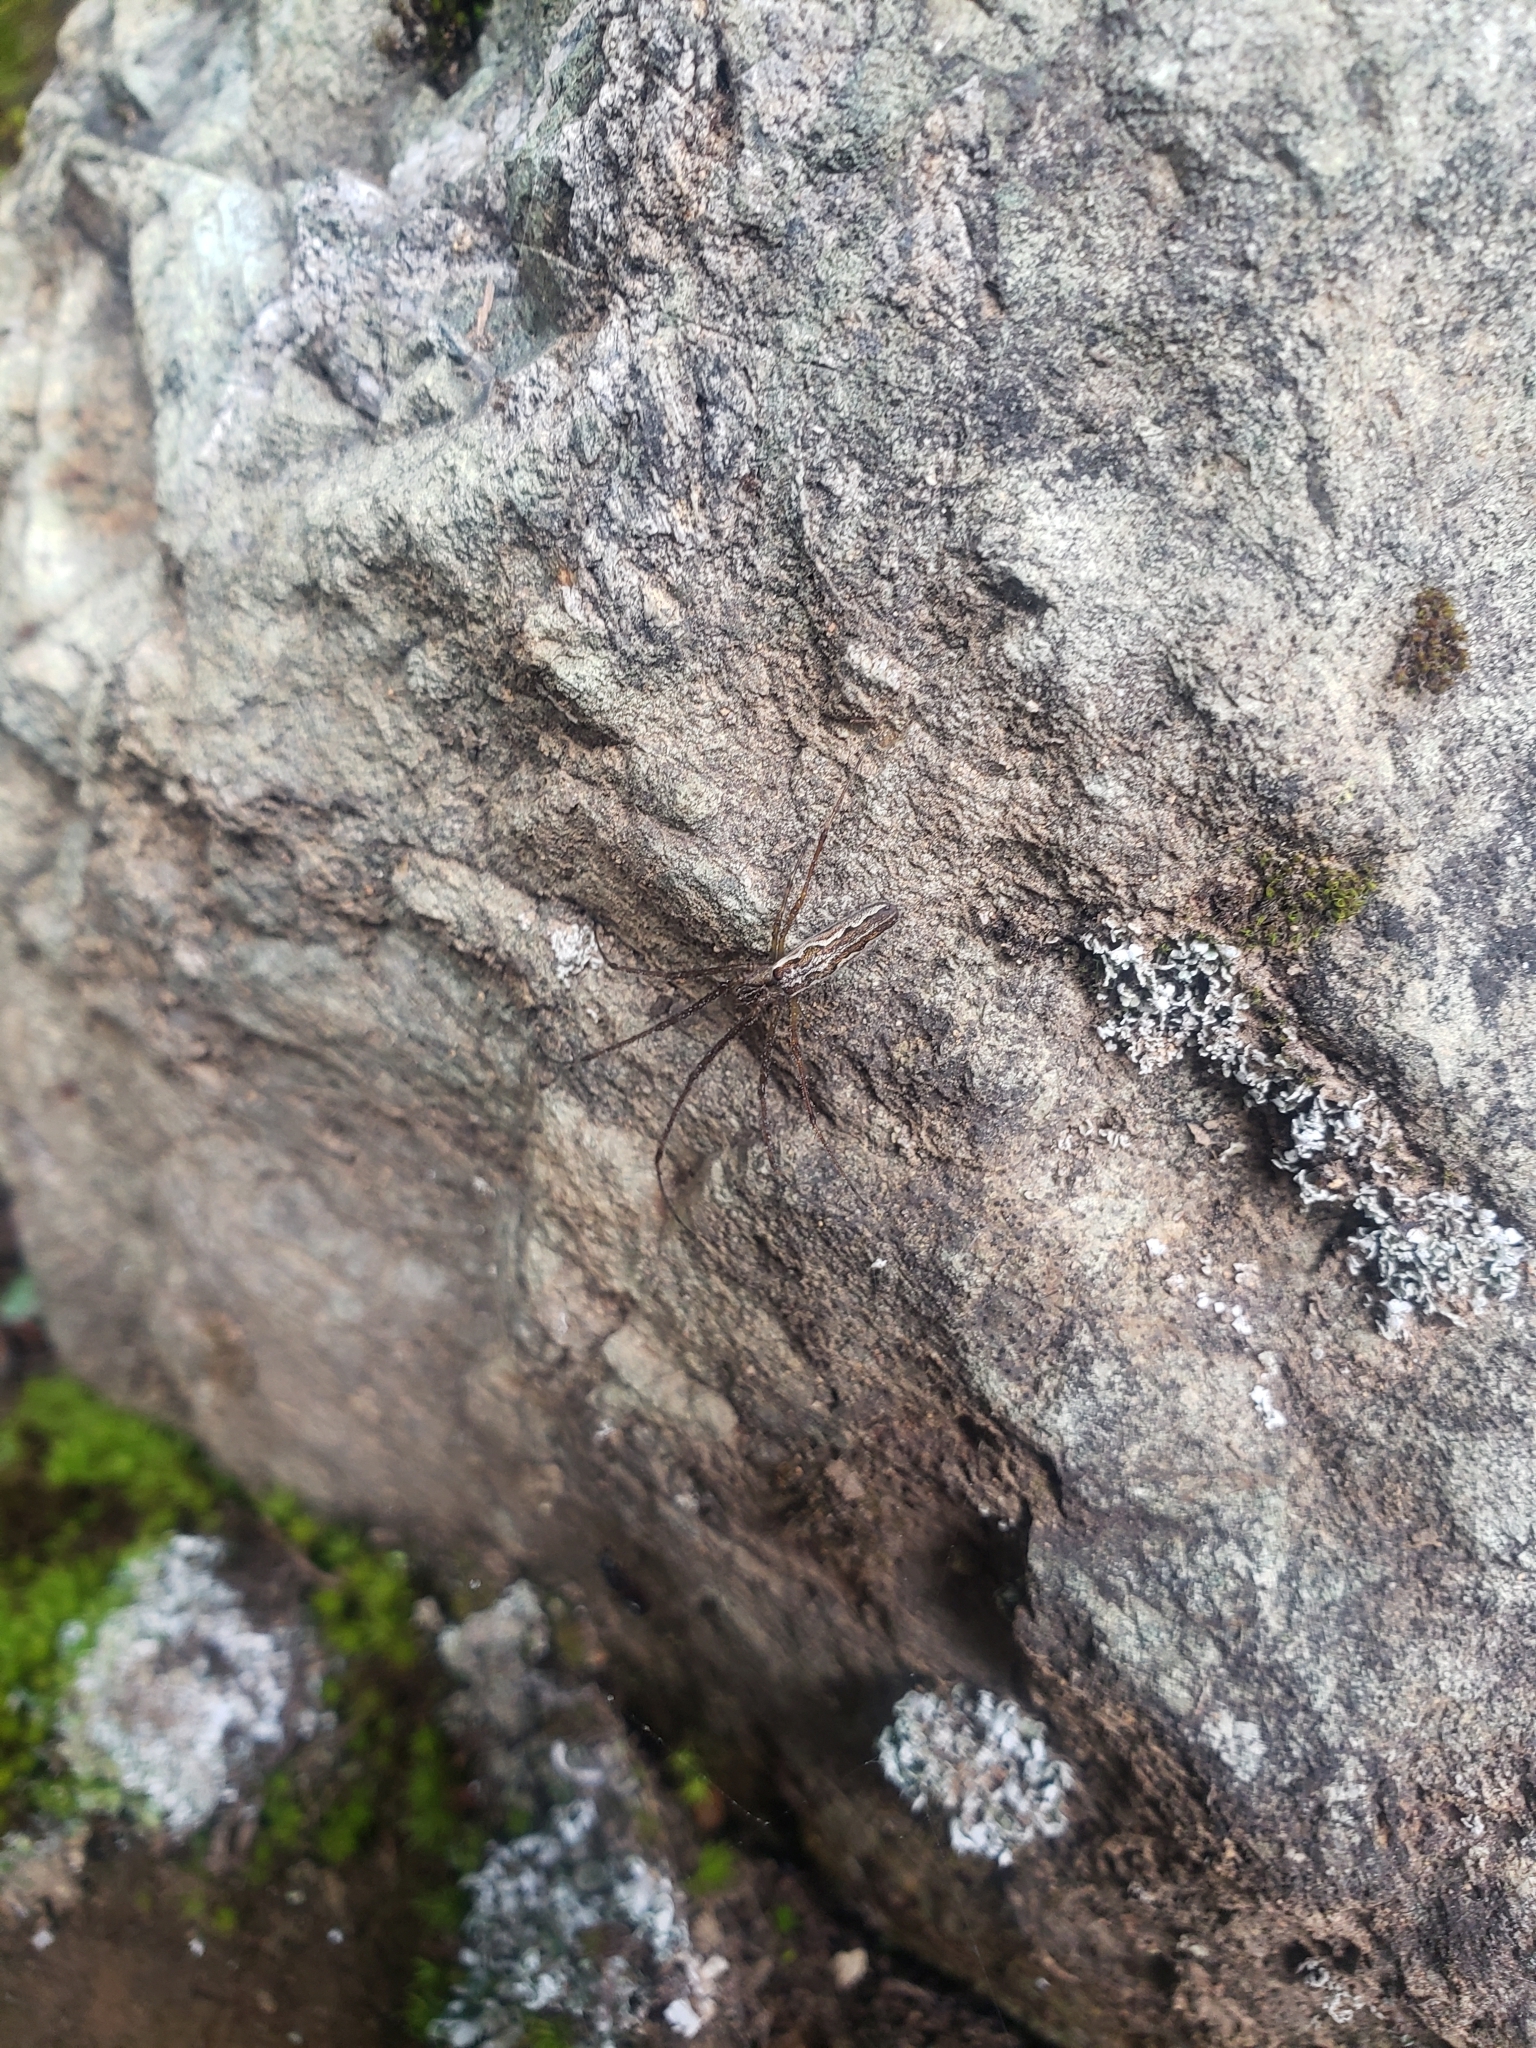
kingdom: Animalia
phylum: Arthropoda
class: Arachnida
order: Araneae
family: Tetragnathidae
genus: Tetragnatha
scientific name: Tetragnatha versicolor
